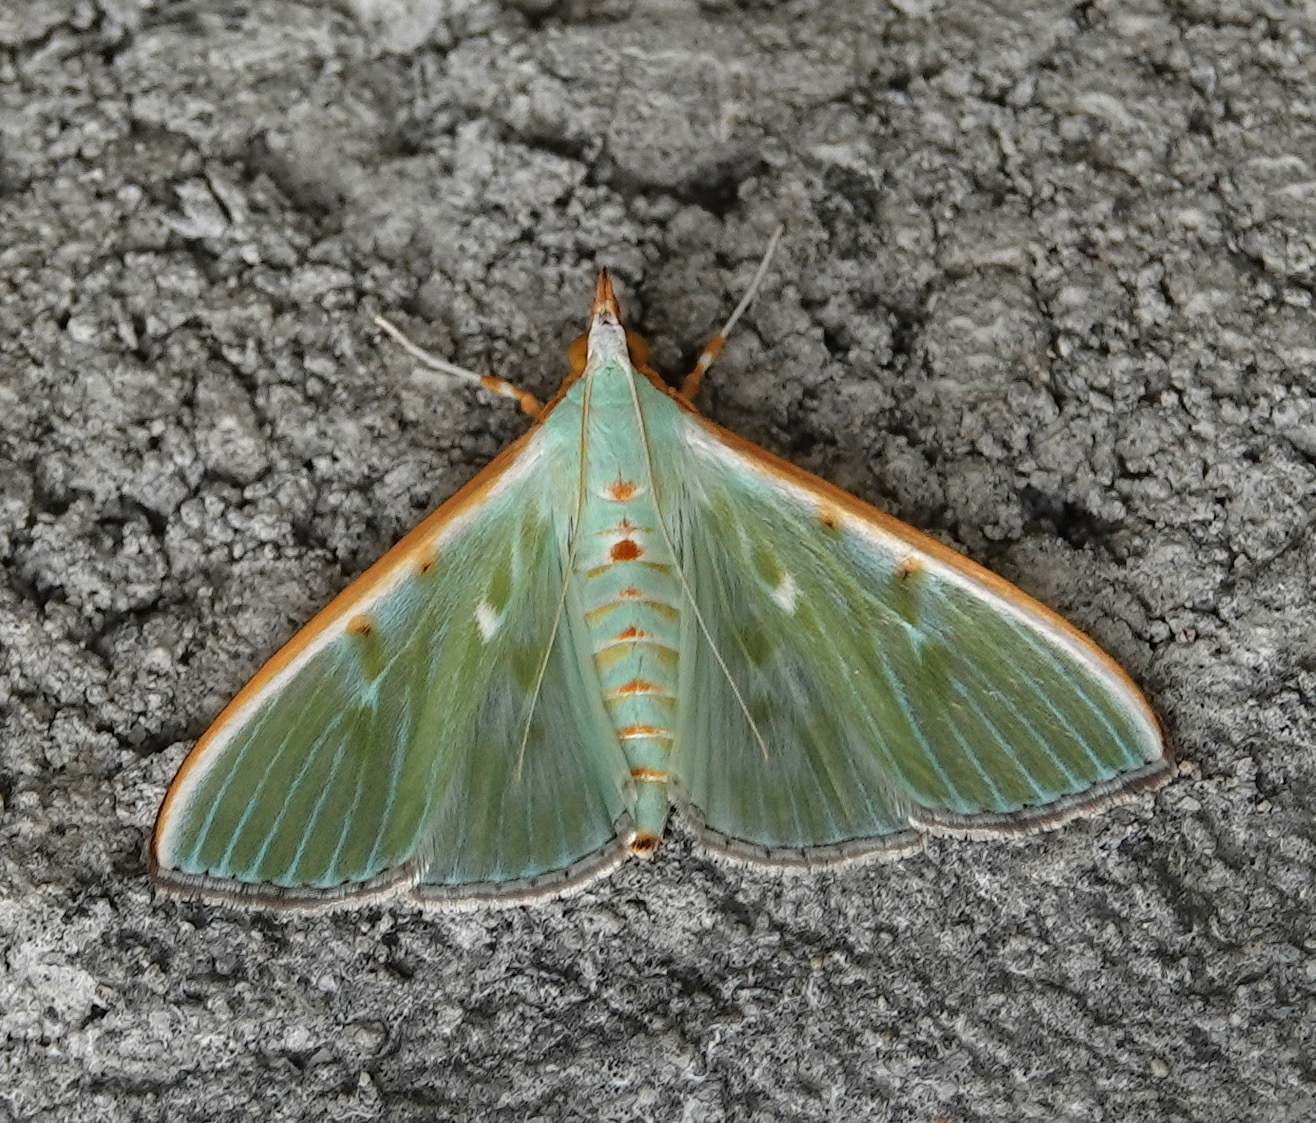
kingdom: Animalia
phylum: Arthropoda
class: Insecta
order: Lepidoptera
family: Crambidae
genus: Arthroschista
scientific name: Arthroschista hilaralis
